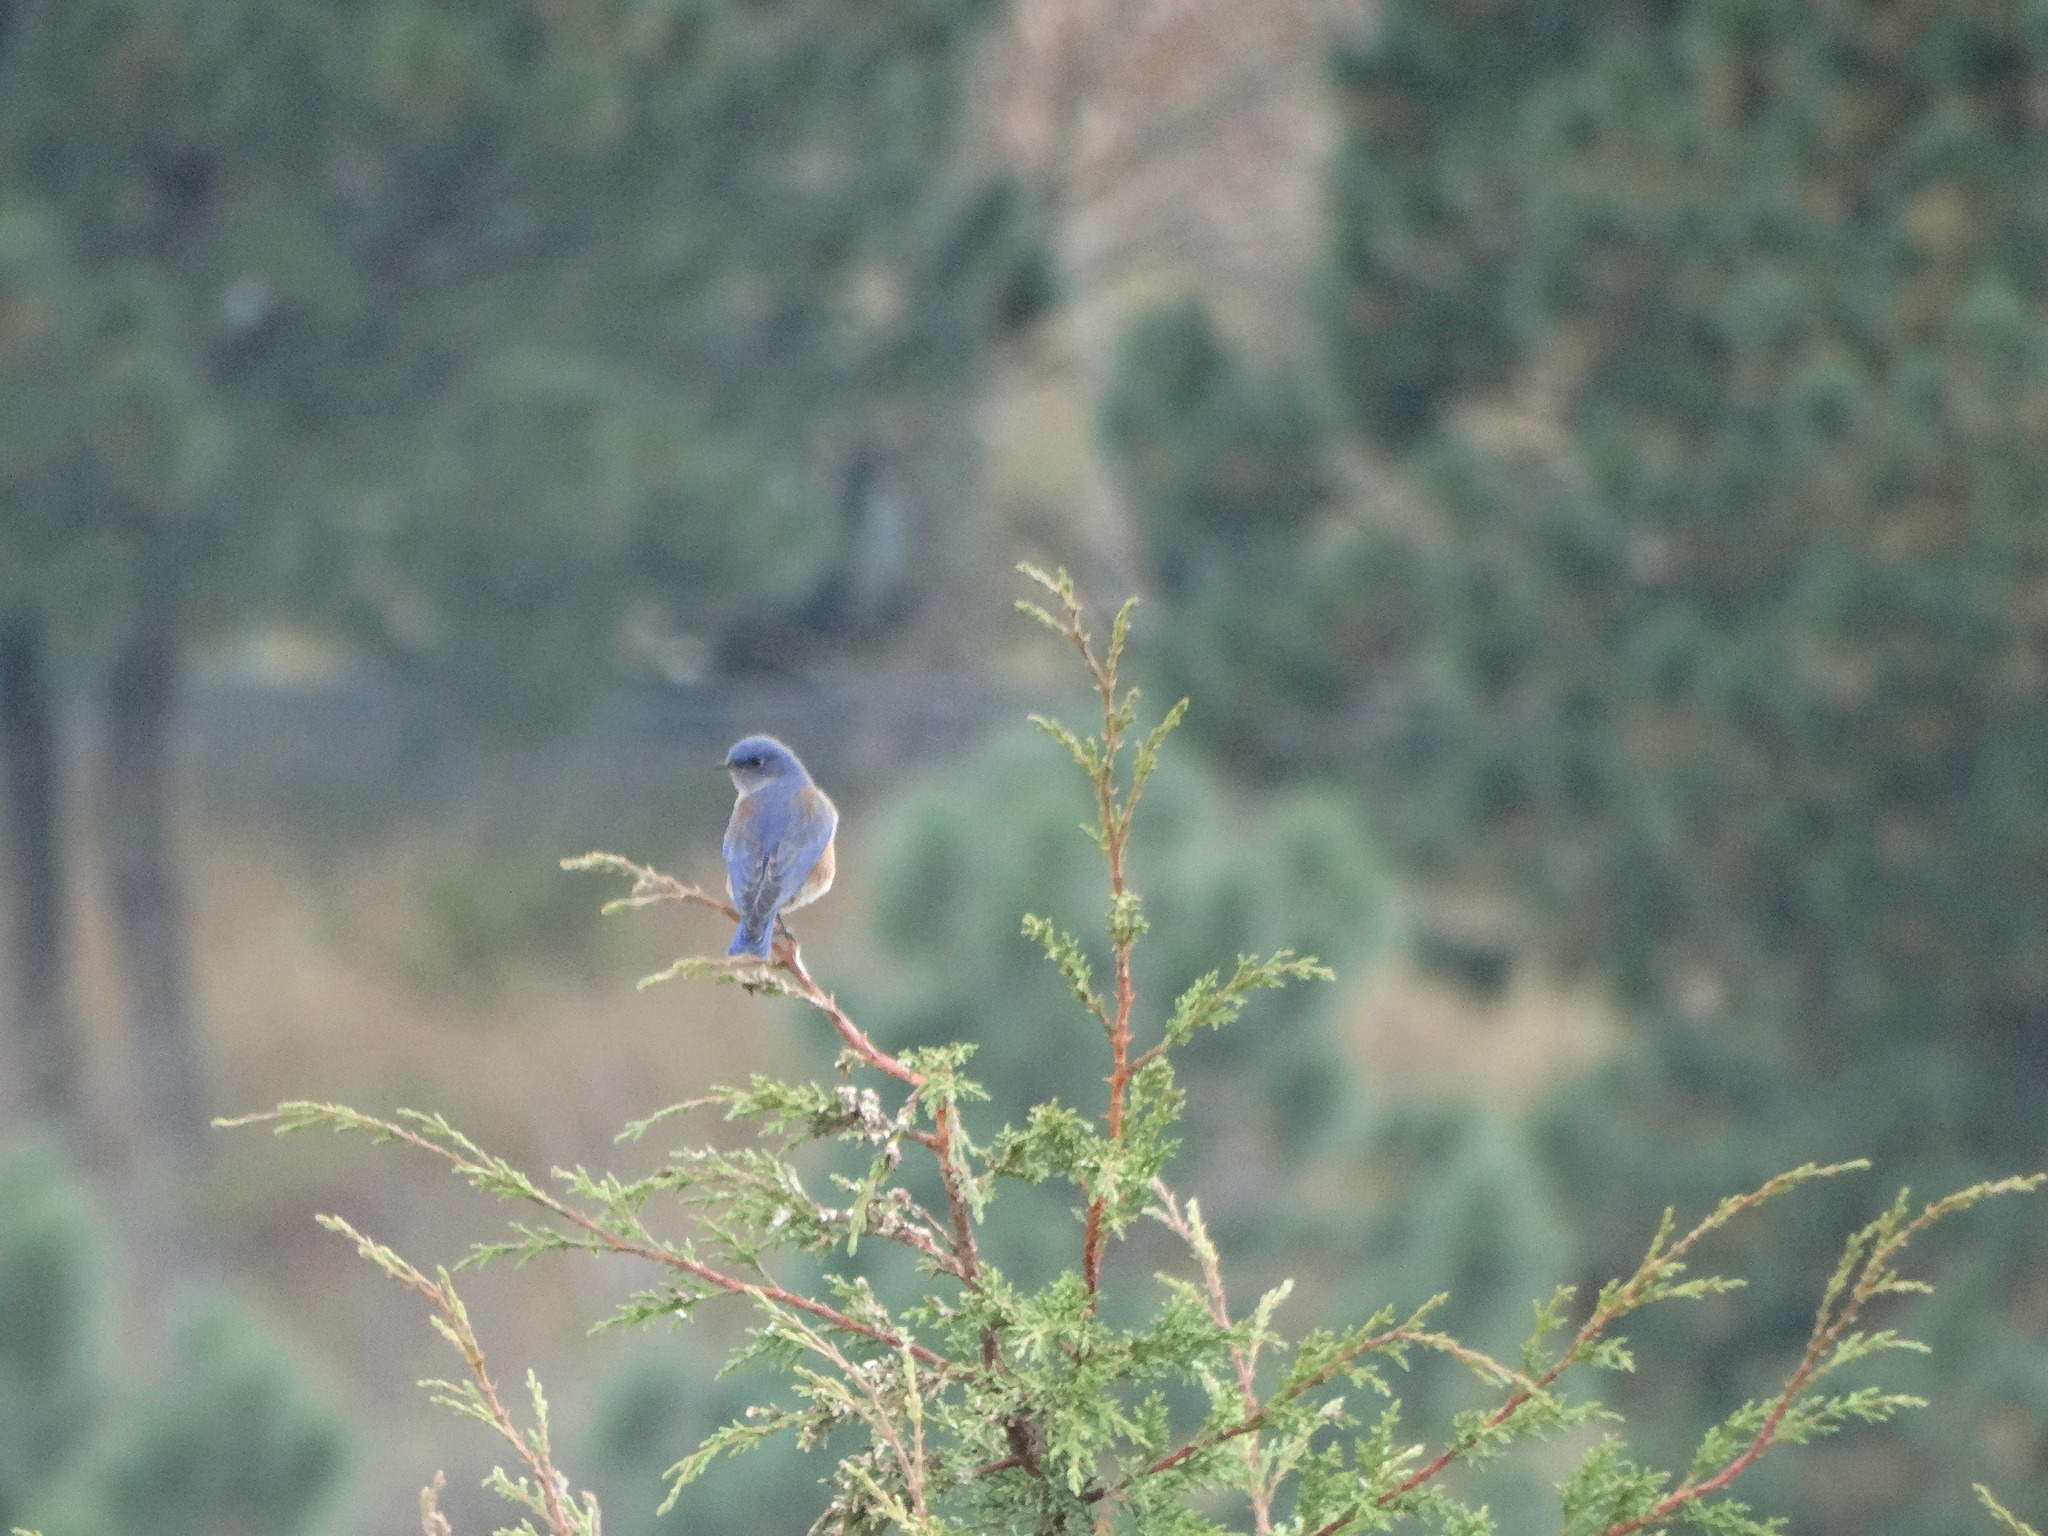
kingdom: Animalia
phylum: Chordata
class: Aves
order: Passeriformes
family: Turdidae
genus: Sialia
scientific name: Sialia mexicana
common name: Western bluebird
